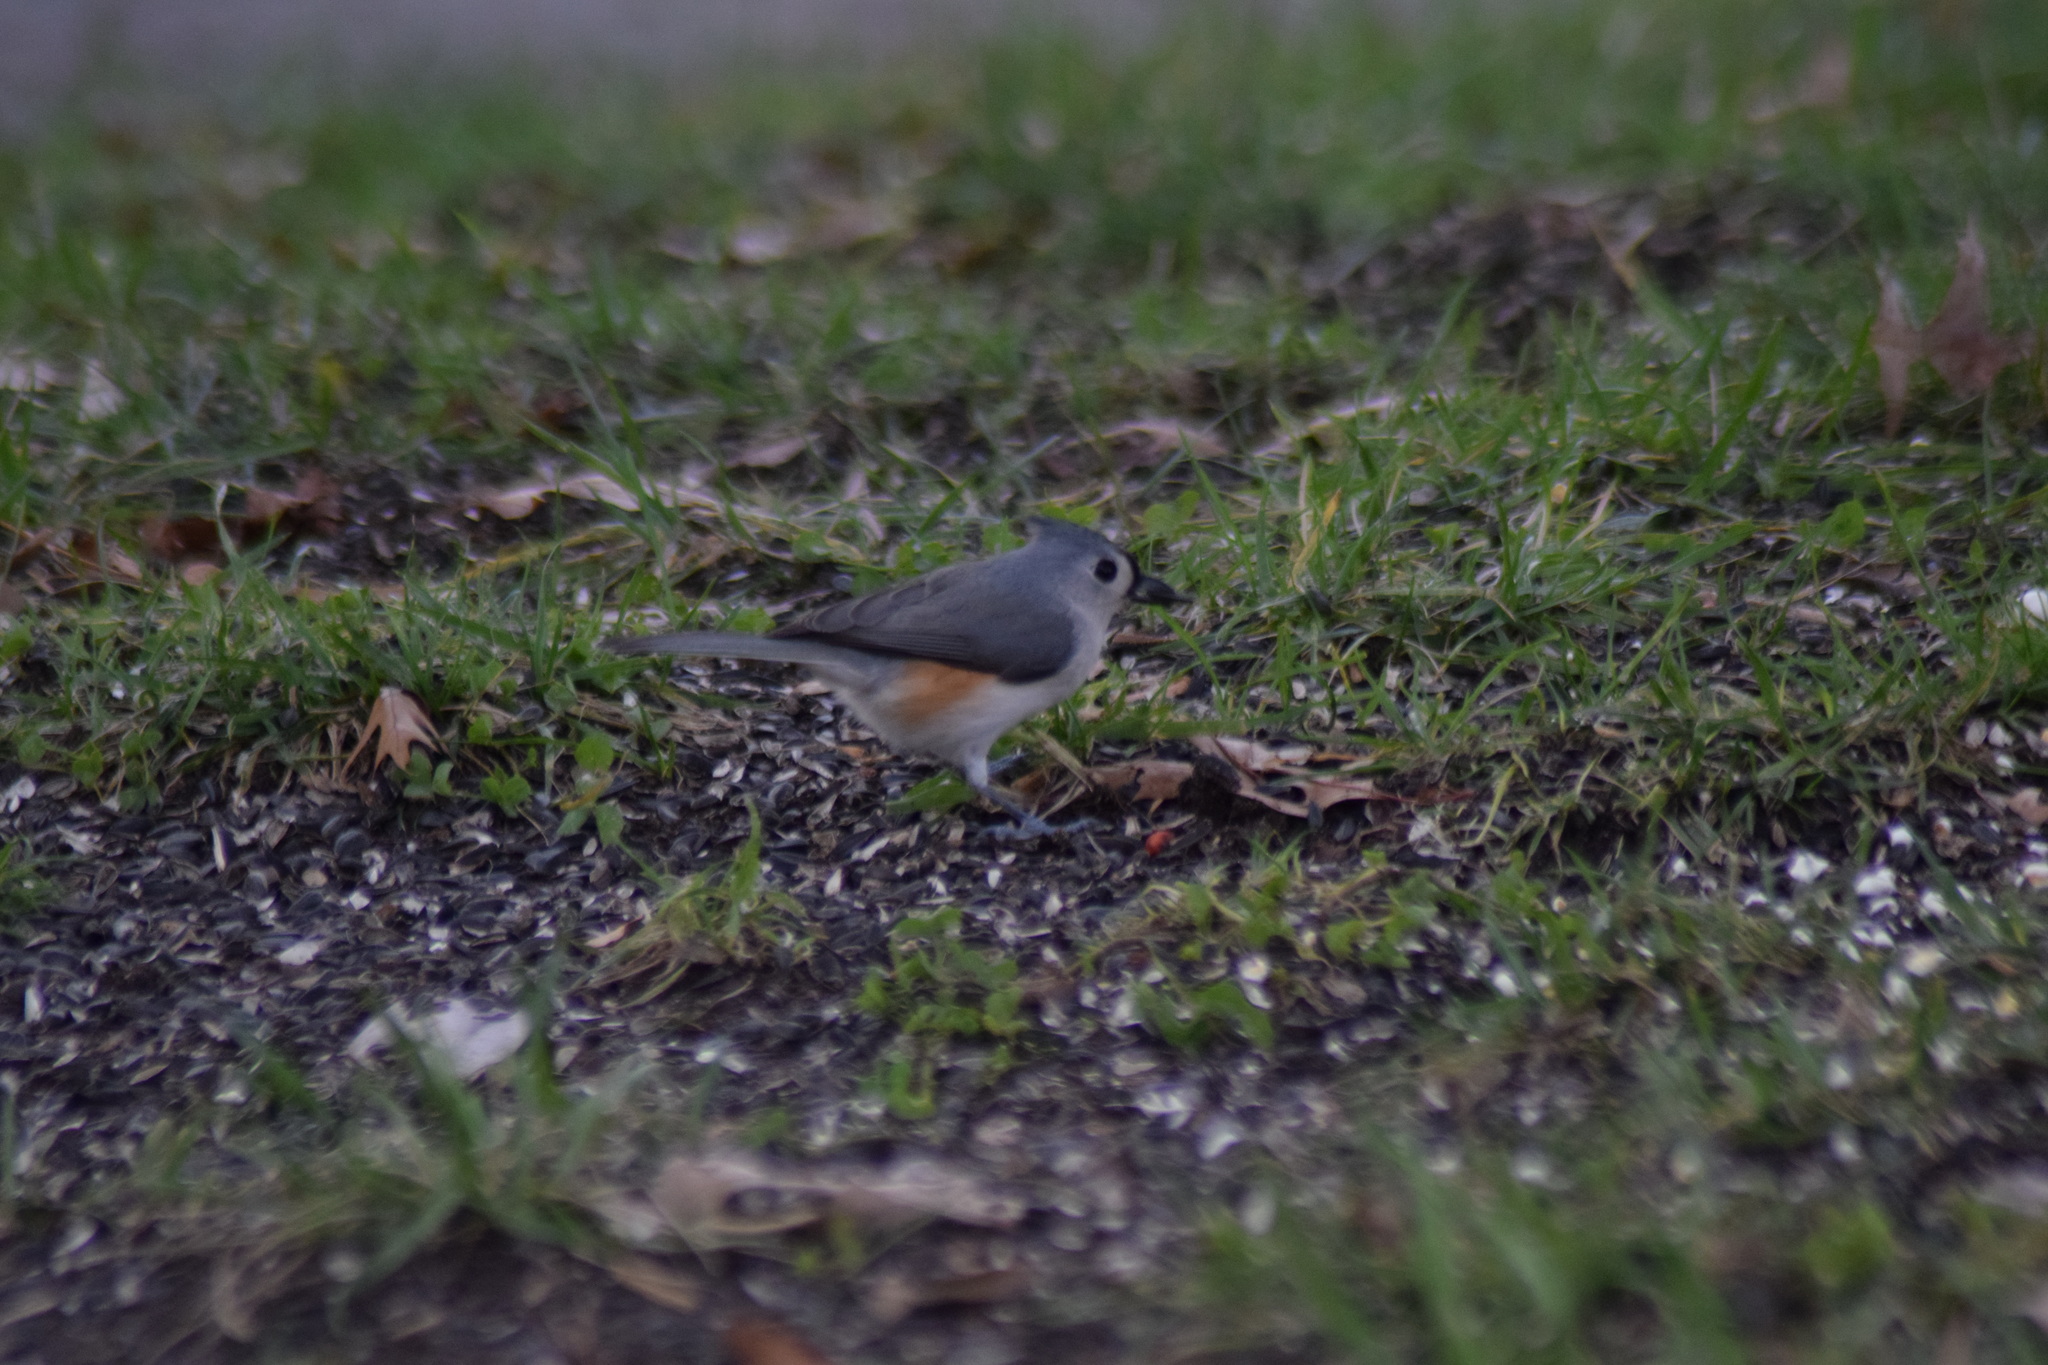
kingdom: Animalia
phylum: Chordata
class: Aves
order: Passeriformes
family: Paridae
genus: Baeolophus
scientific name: Baeolophus bicolor
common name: Tufted titmouse
